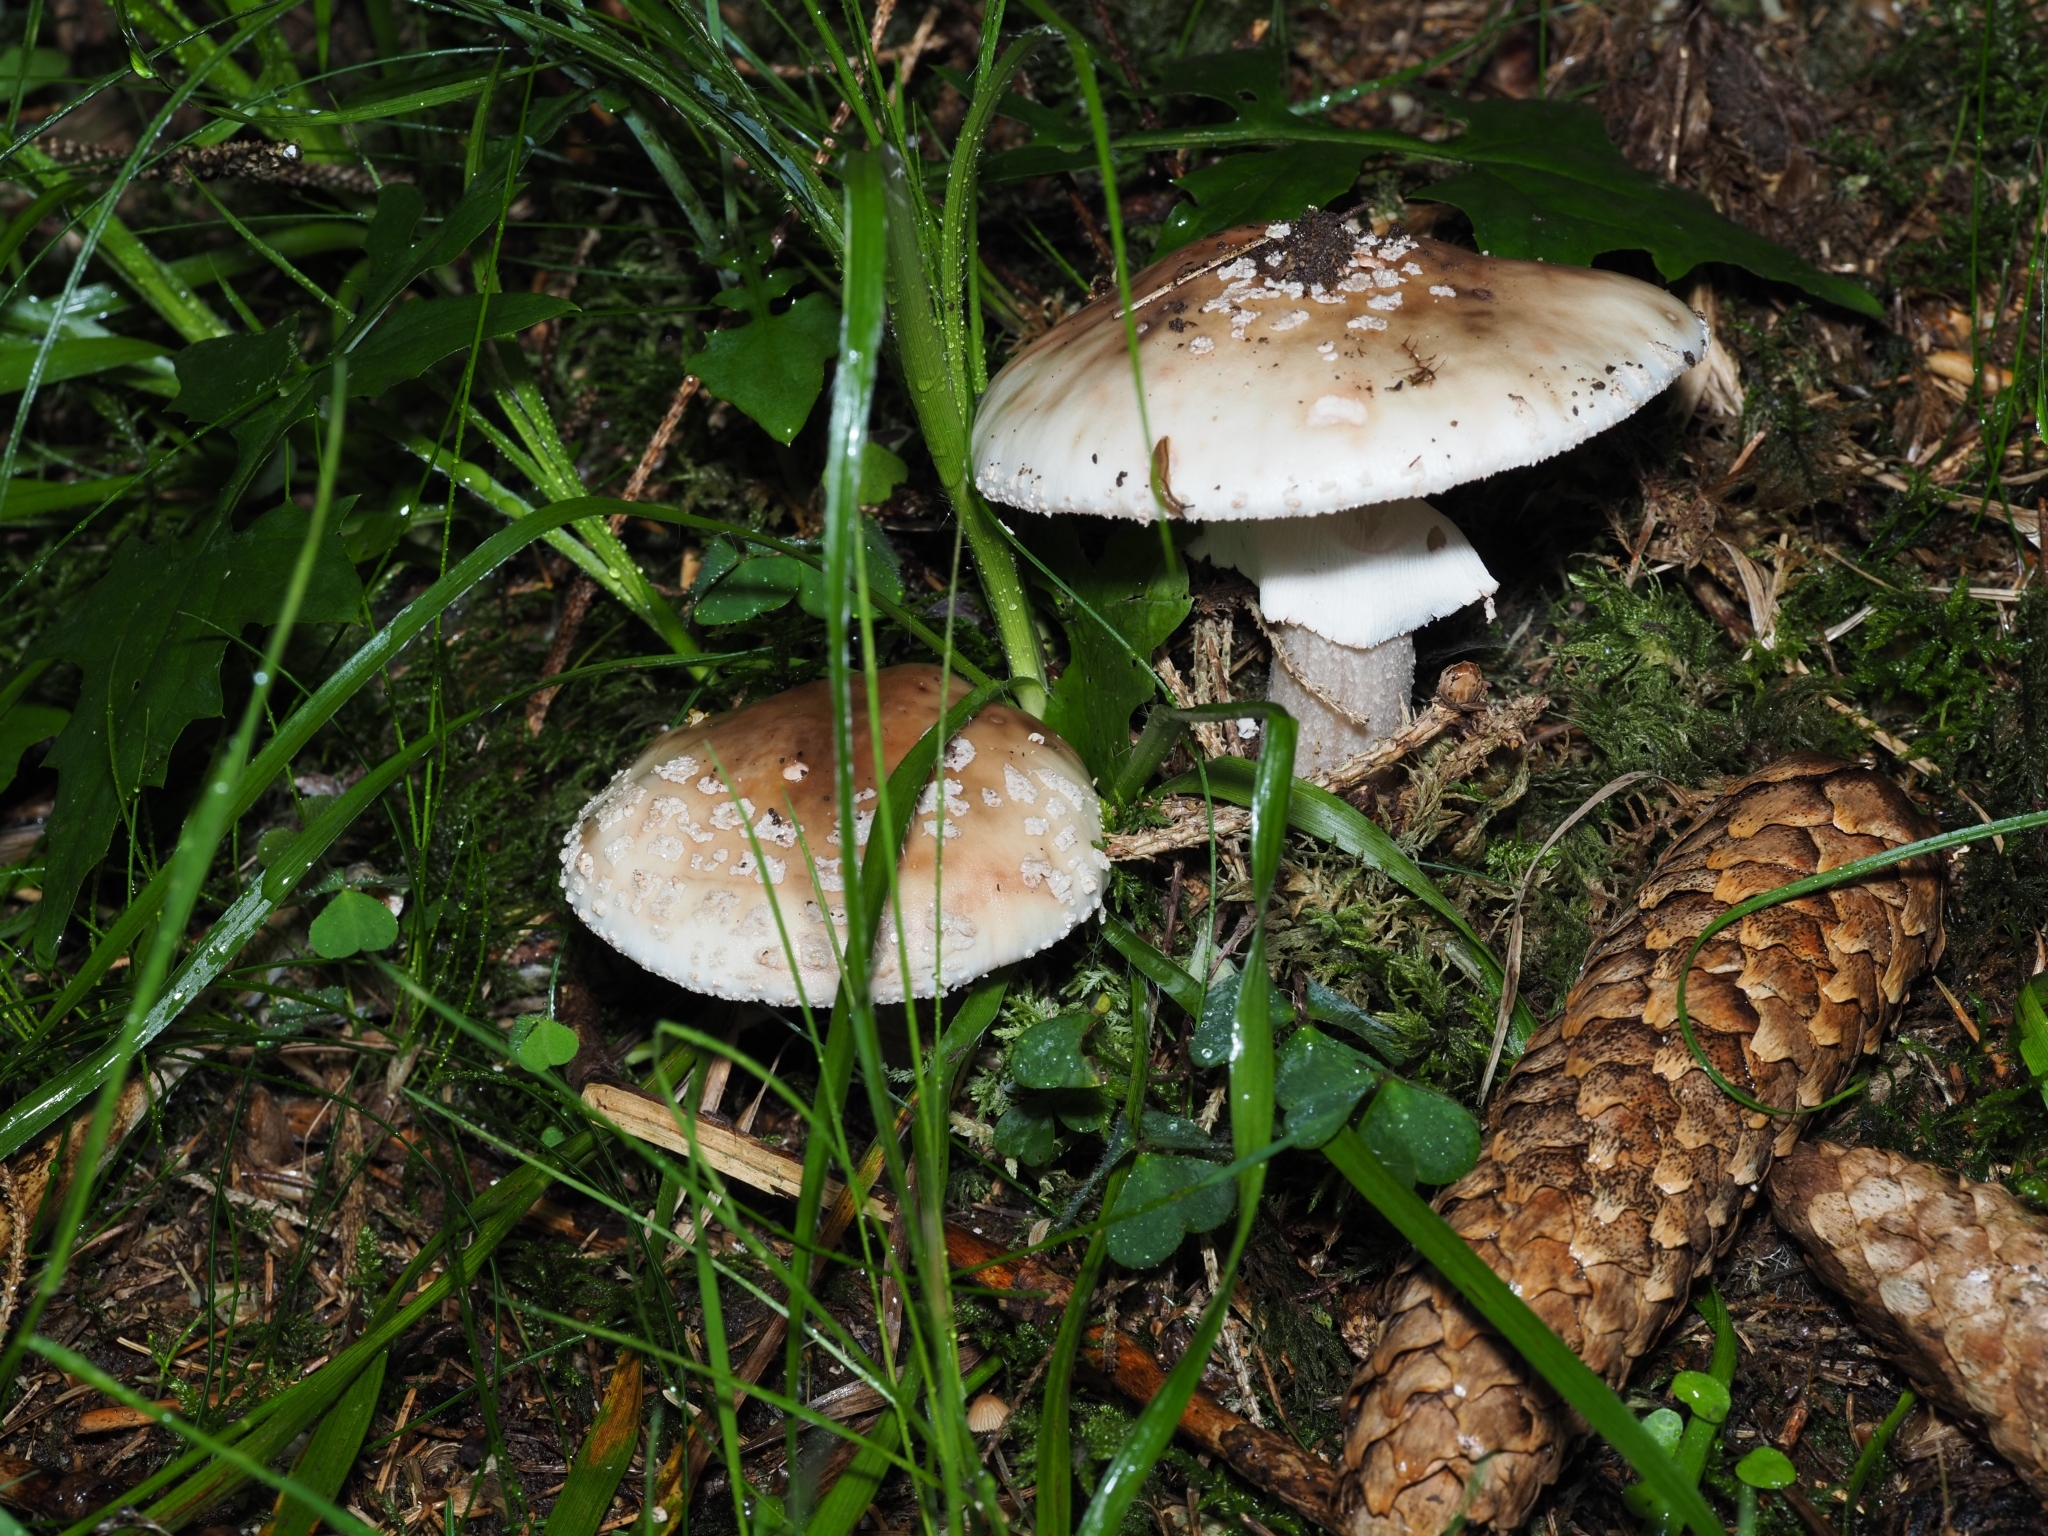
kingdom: Fungi
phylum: Basidiomycota
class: Agaricomycetes
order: Agaricales
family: Amanitaceae
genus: Amanita
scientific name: Amanita rubescens
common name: Blusher
